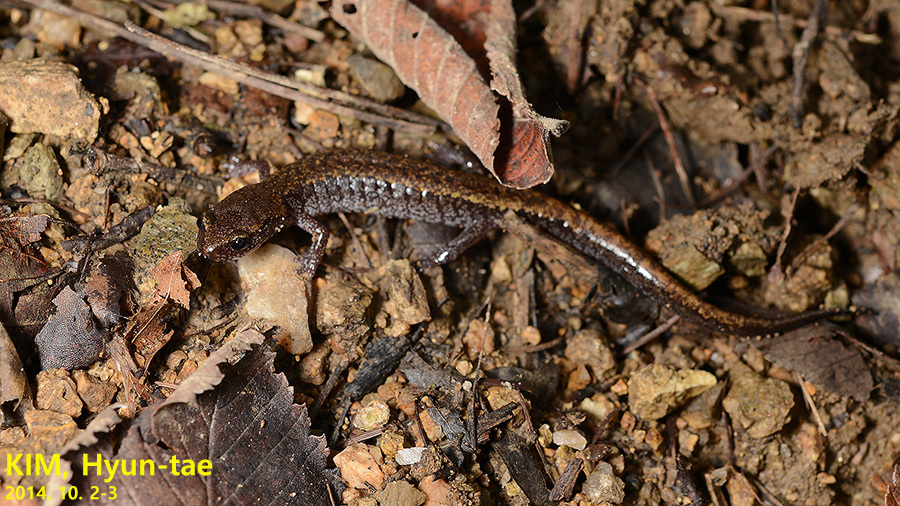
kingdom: Animalia
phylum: Chordata
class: Amphibia
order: Caudata
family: Plethodontidae
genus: Karsenia
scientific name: Karsenia koreana
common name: Korean crevice salamander
